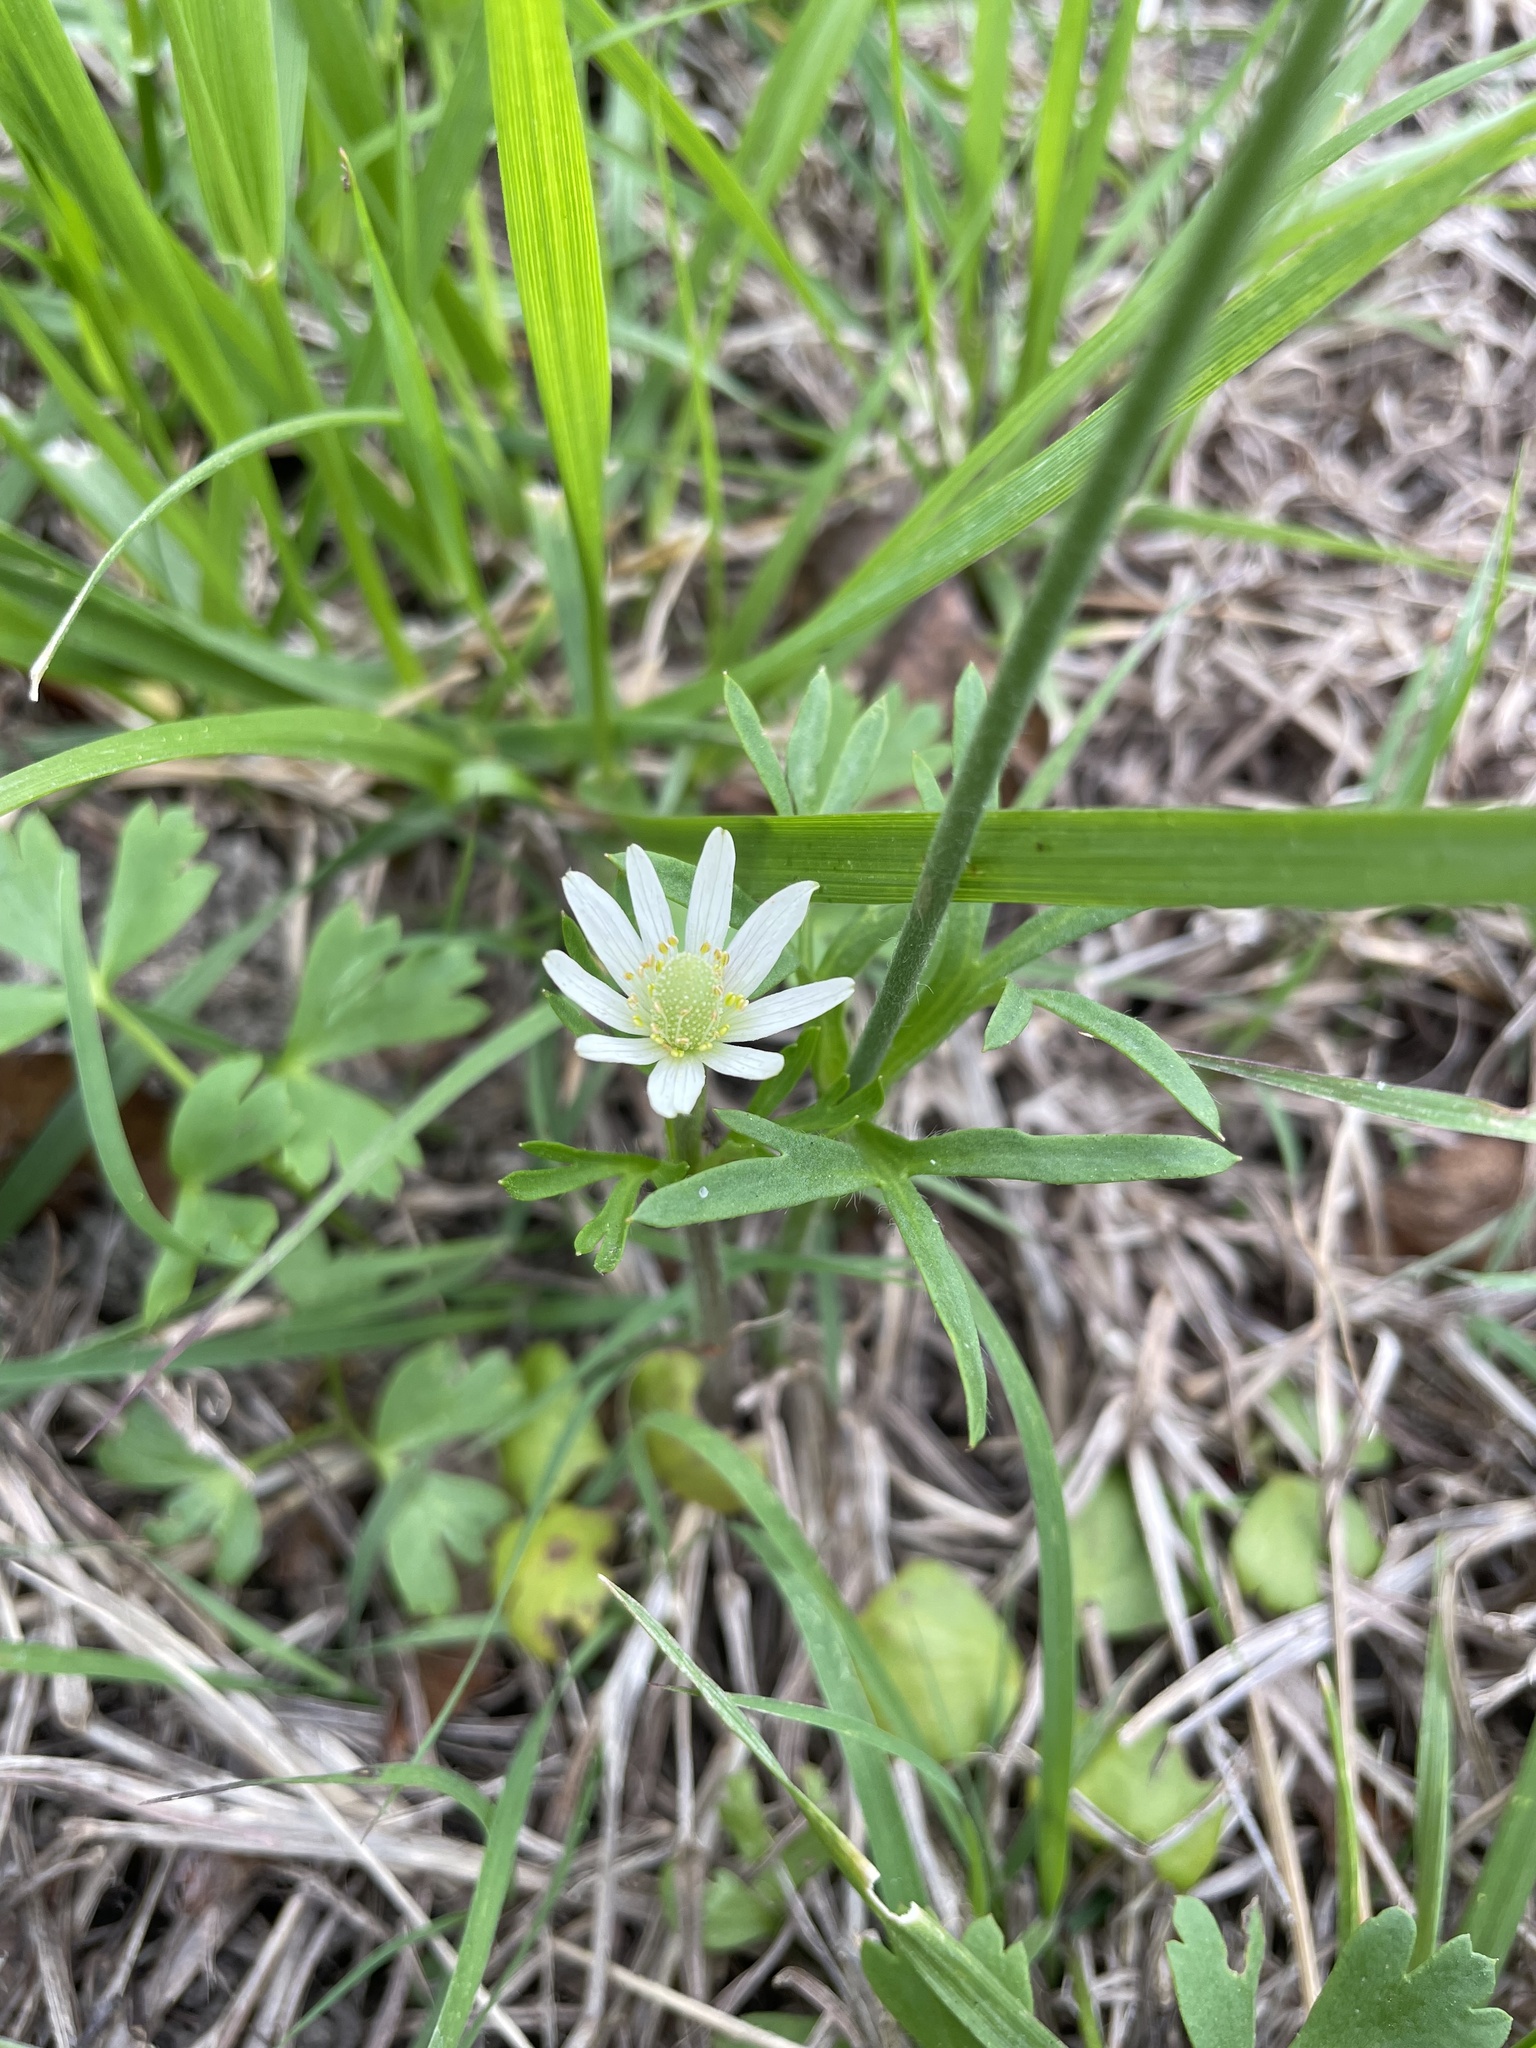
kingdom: Plantae
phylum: Tracheophyta
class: Magnoliopsida
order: Ranunculales
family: Ranunculaceae
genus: Anemone
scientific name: Anemone berlandieri
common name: Ten-petal anemone
